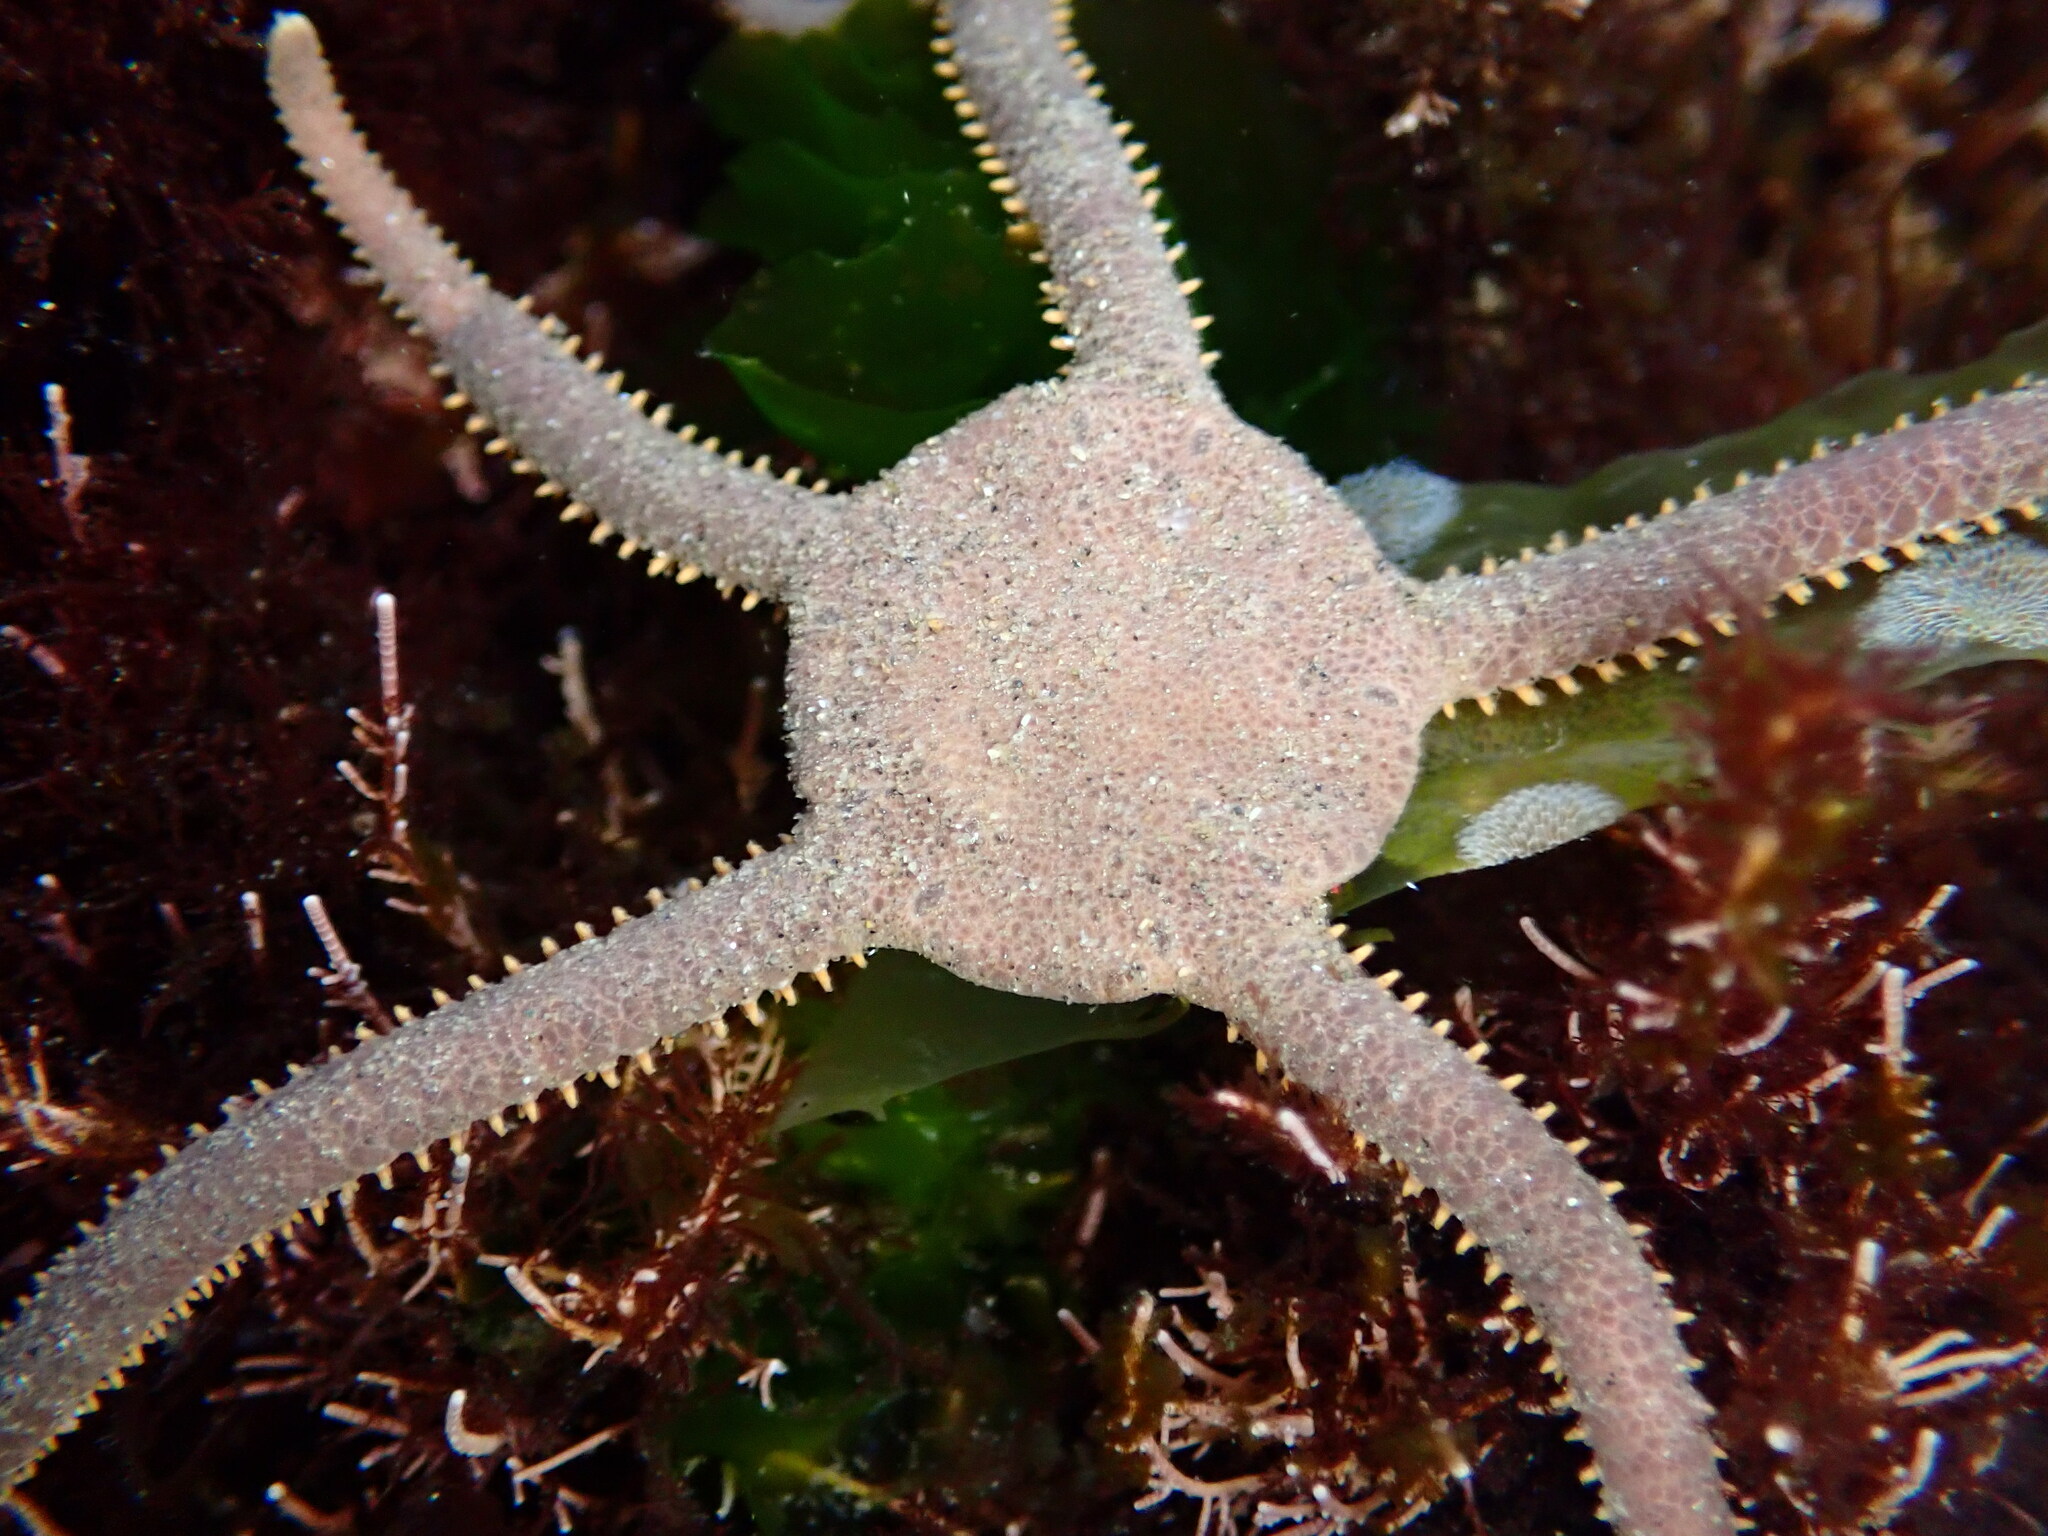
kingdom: Animalia
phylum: Echinodermata
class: Ophiuroidea
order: Amphilepidida
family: Hemieuryalidae
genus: Ophioplocus
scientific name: Ophioplocus esmarki
